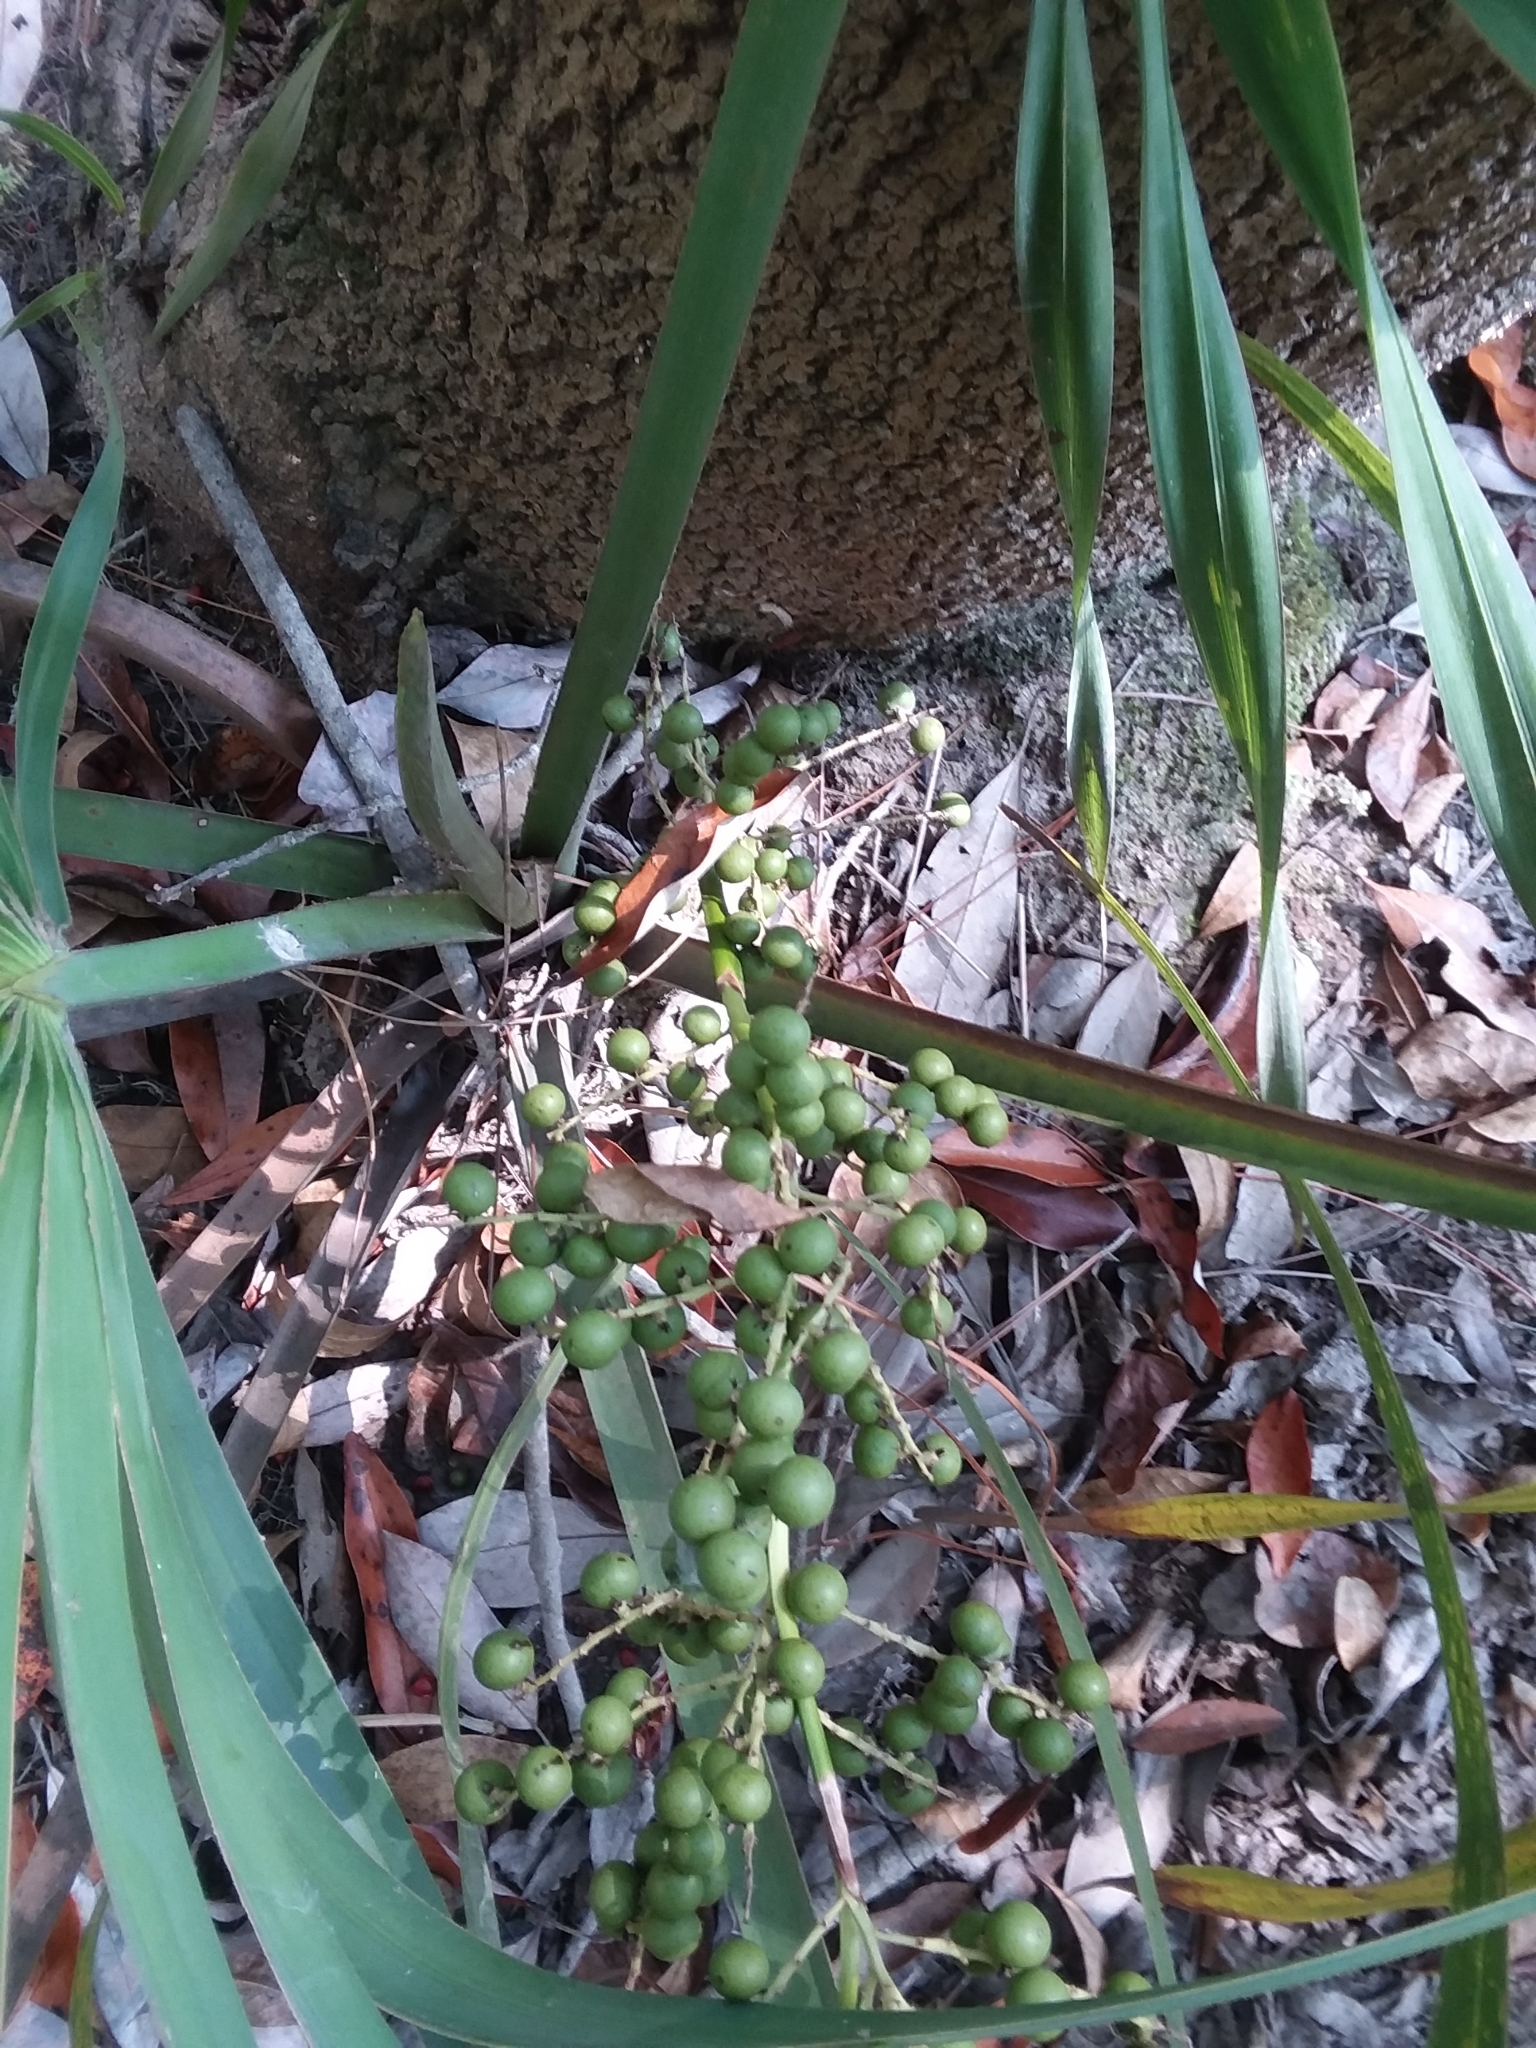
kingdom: Plantae
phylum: Tracheophyta
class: Liliopsida
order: Arecales
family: Arecaceae
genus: Sabal
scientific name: Sabal minor
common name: Dwarf palmetto
